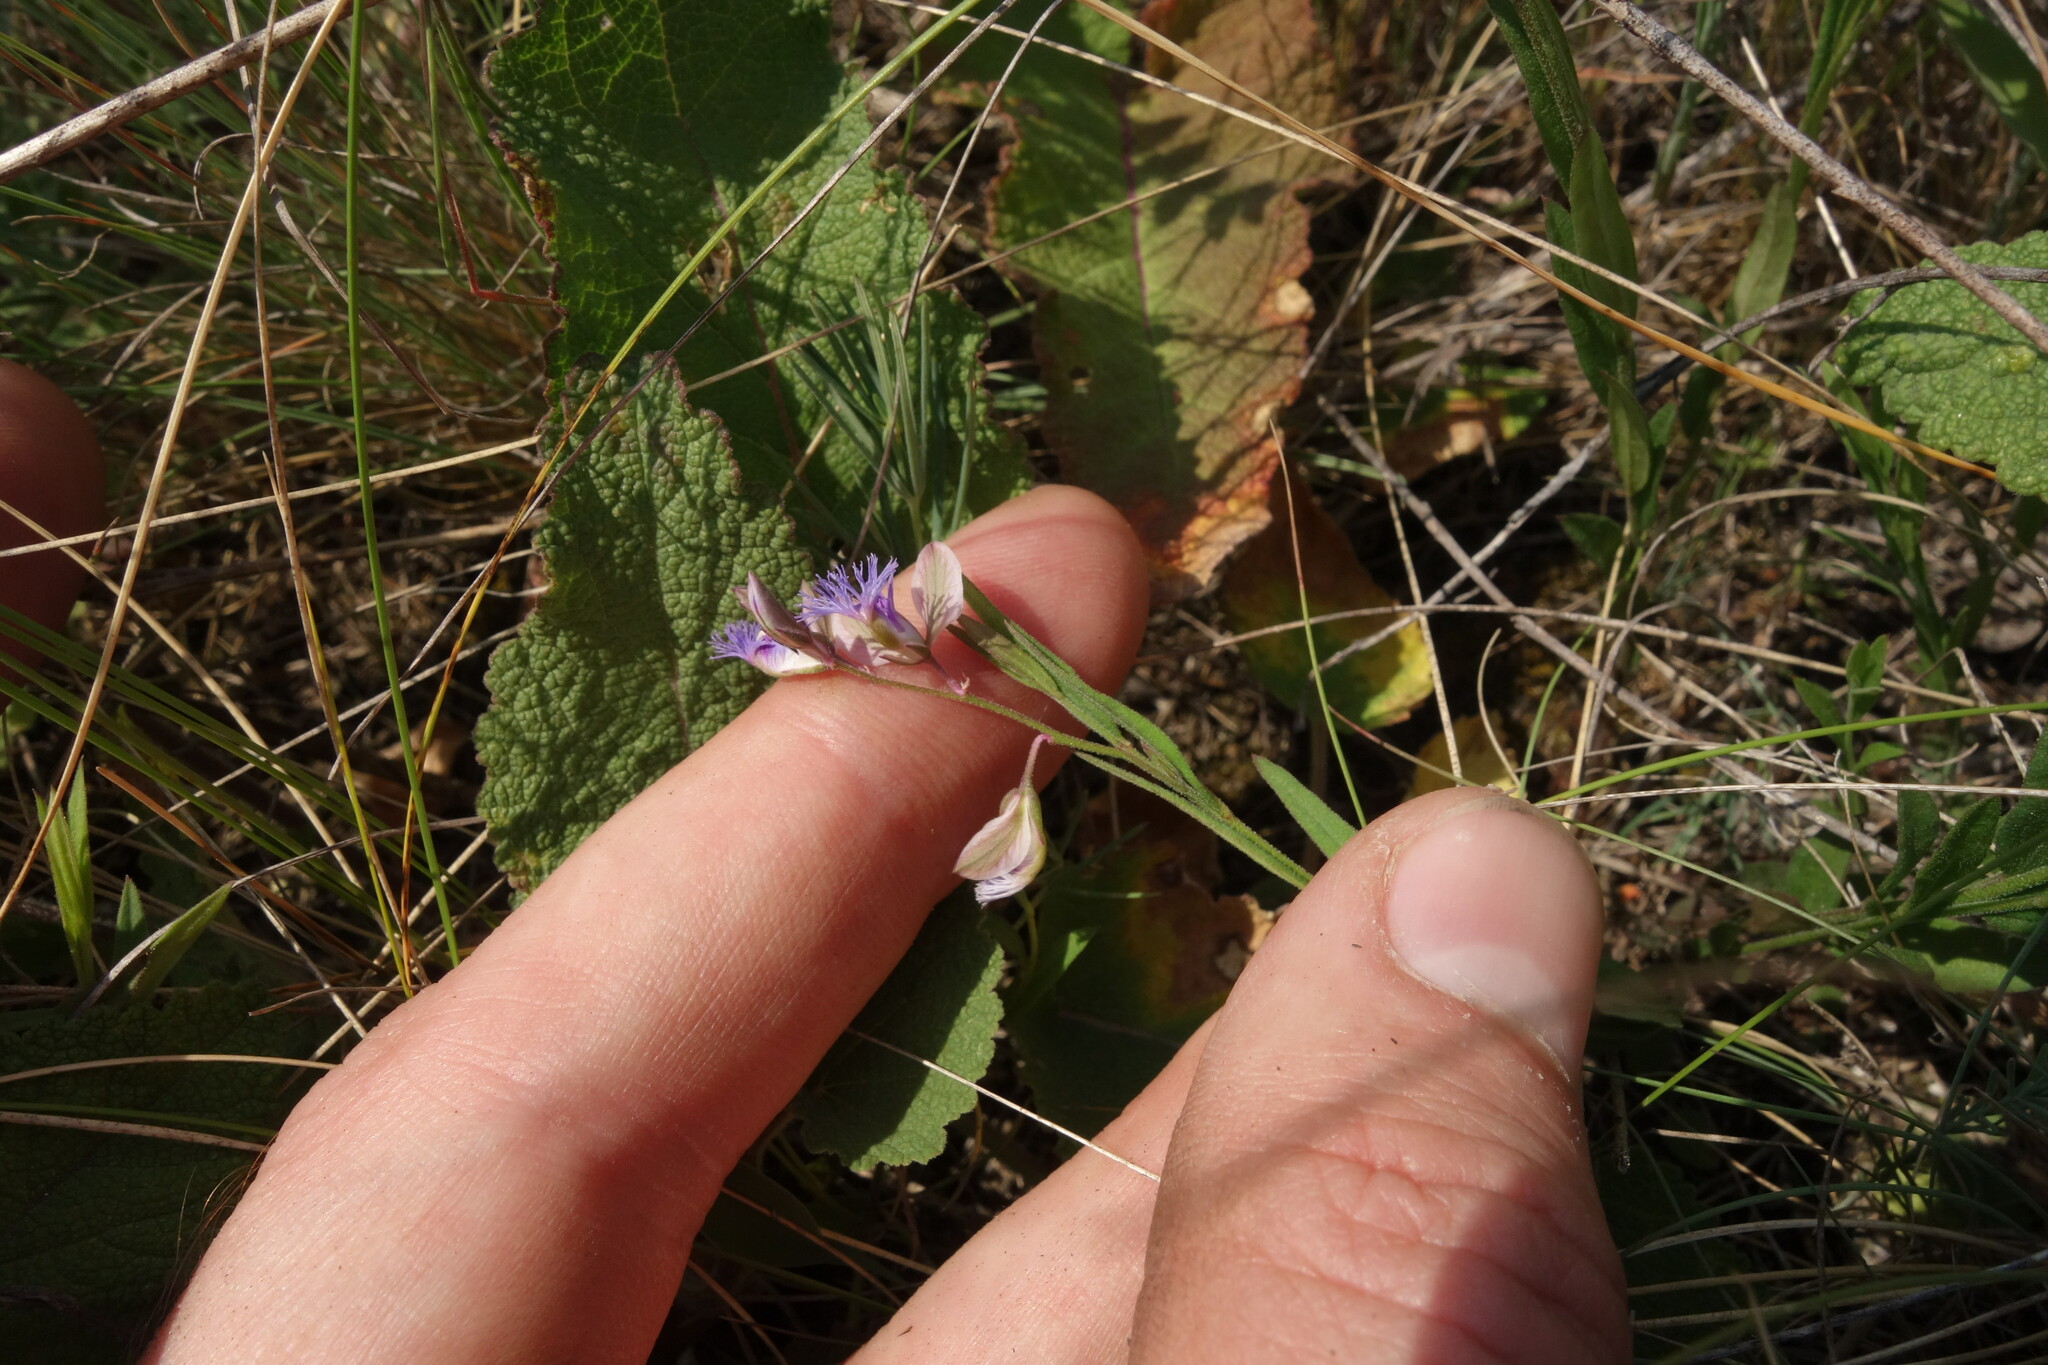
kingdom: Plantae
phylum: Tracheophyta
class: Magnoliopsida
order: Fabales
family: Polygalaceae
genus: Polygala
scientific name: Polygala sibirica
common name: Siberian polygala
